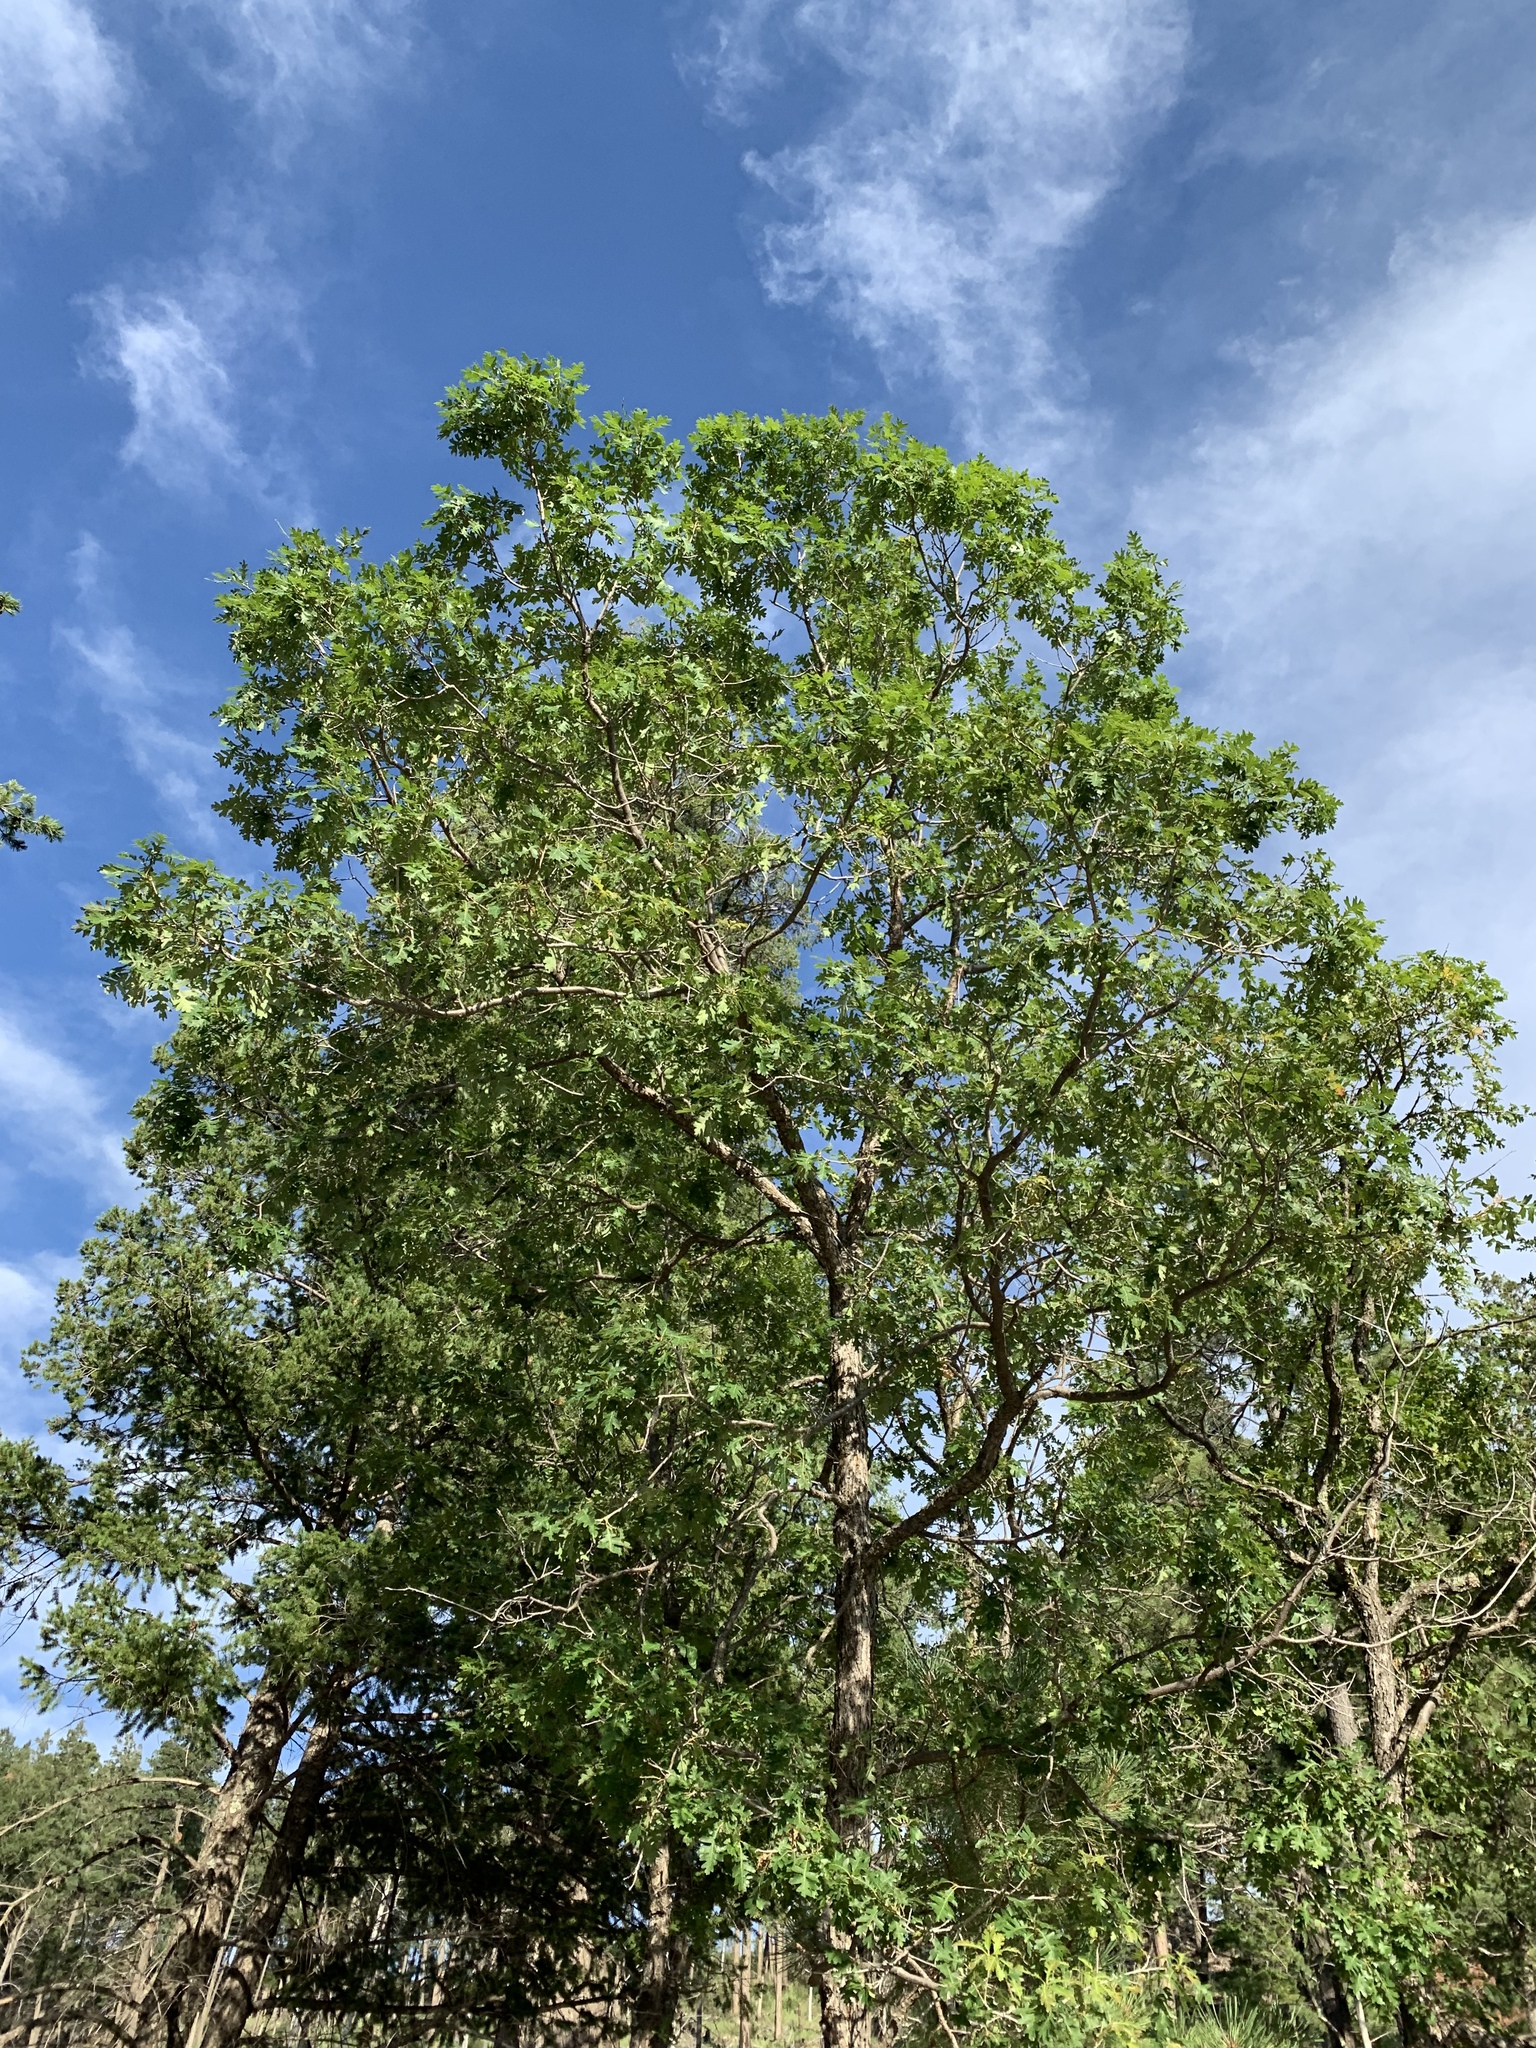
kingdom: Plantae
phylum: Tracheophyta
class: Magnoliopsida
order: Fagales
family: Fagaceae
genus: Quercus
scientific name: Quercus gambelii
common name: Gambel oak
